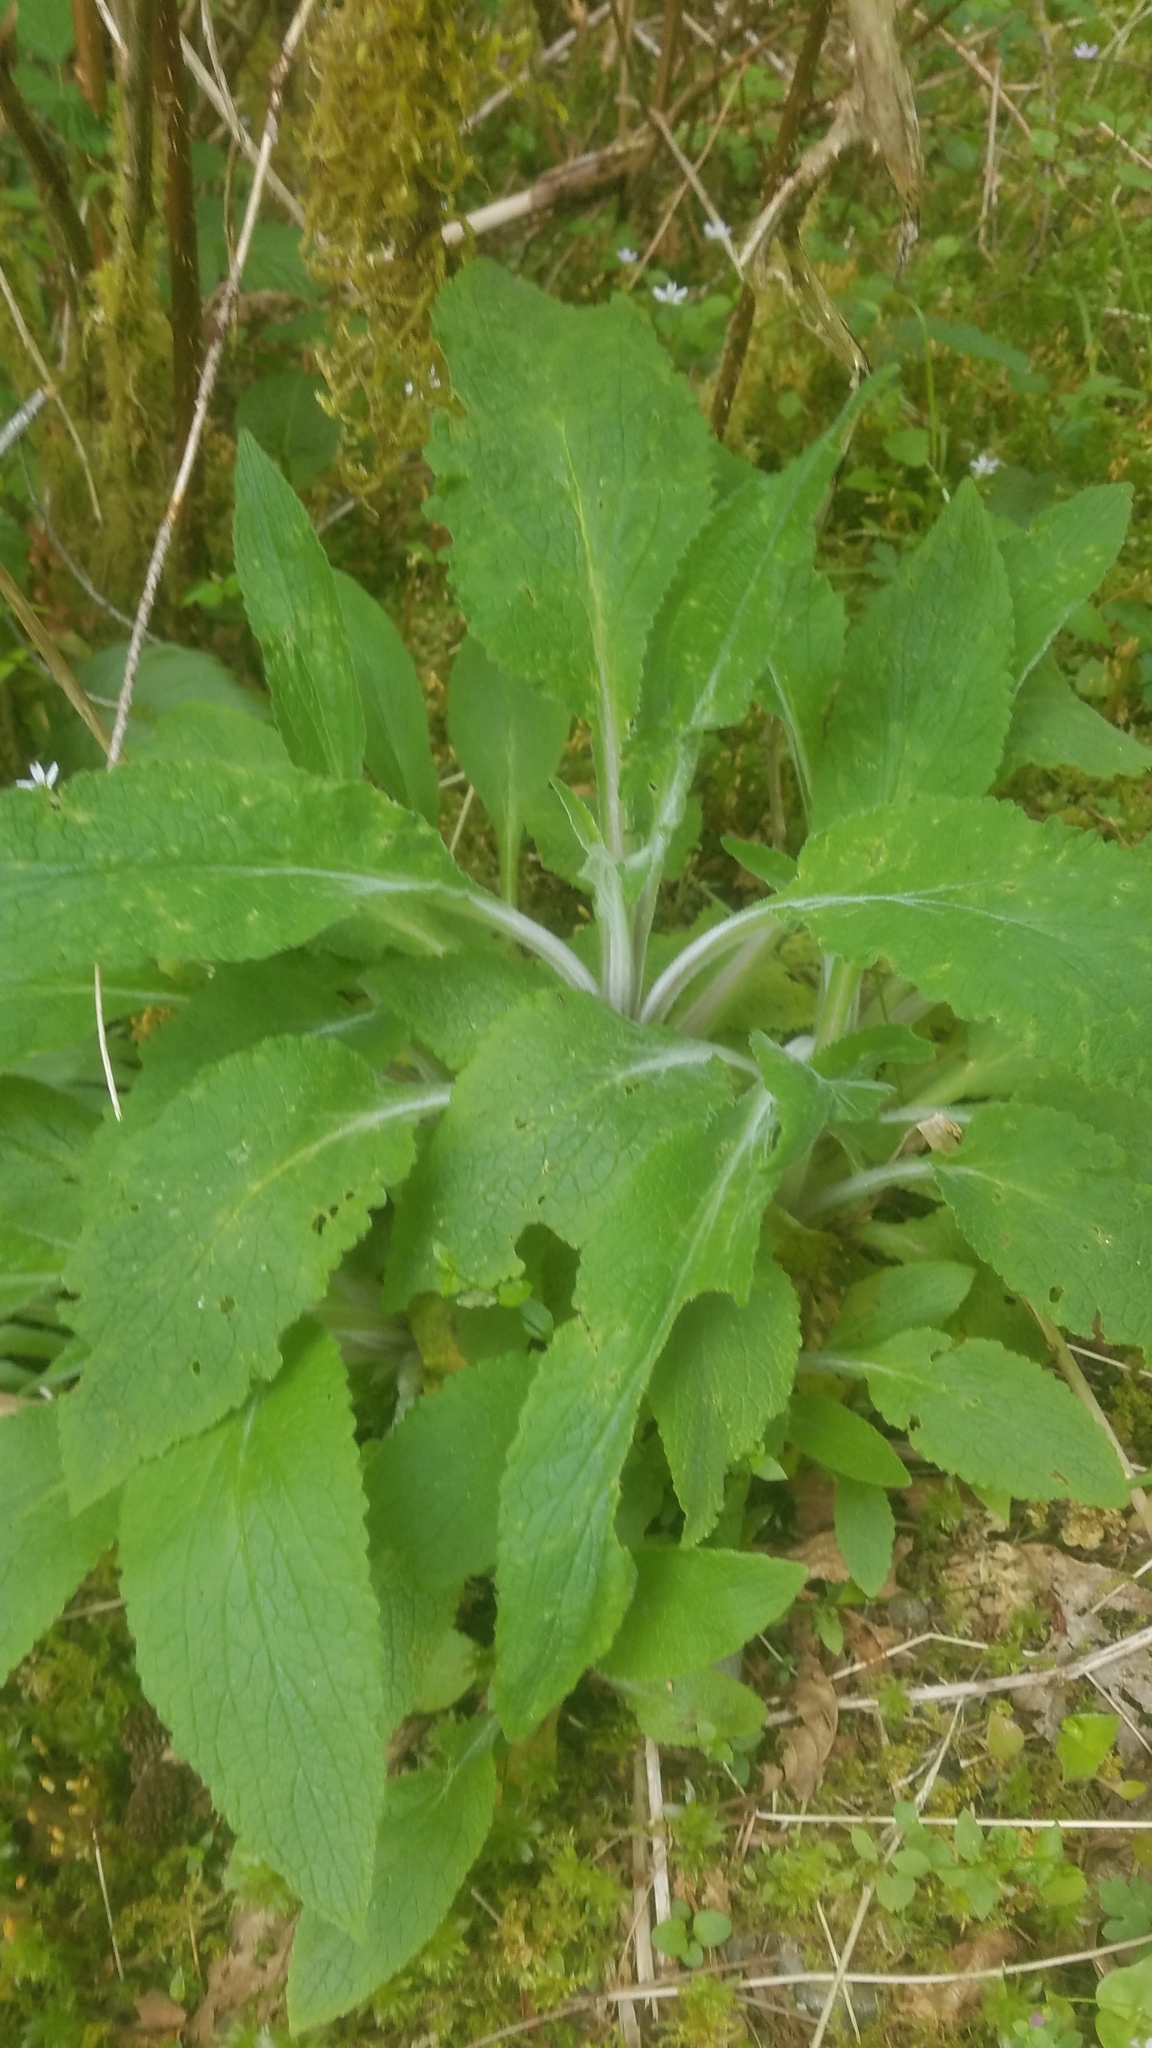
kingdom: Plantae
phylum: Tracheophyta
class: Magnoliopsida
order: Lamiales
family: Plantaginaceae
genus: Digitalis
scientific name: Digitalis purpurea
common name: Foxglove
